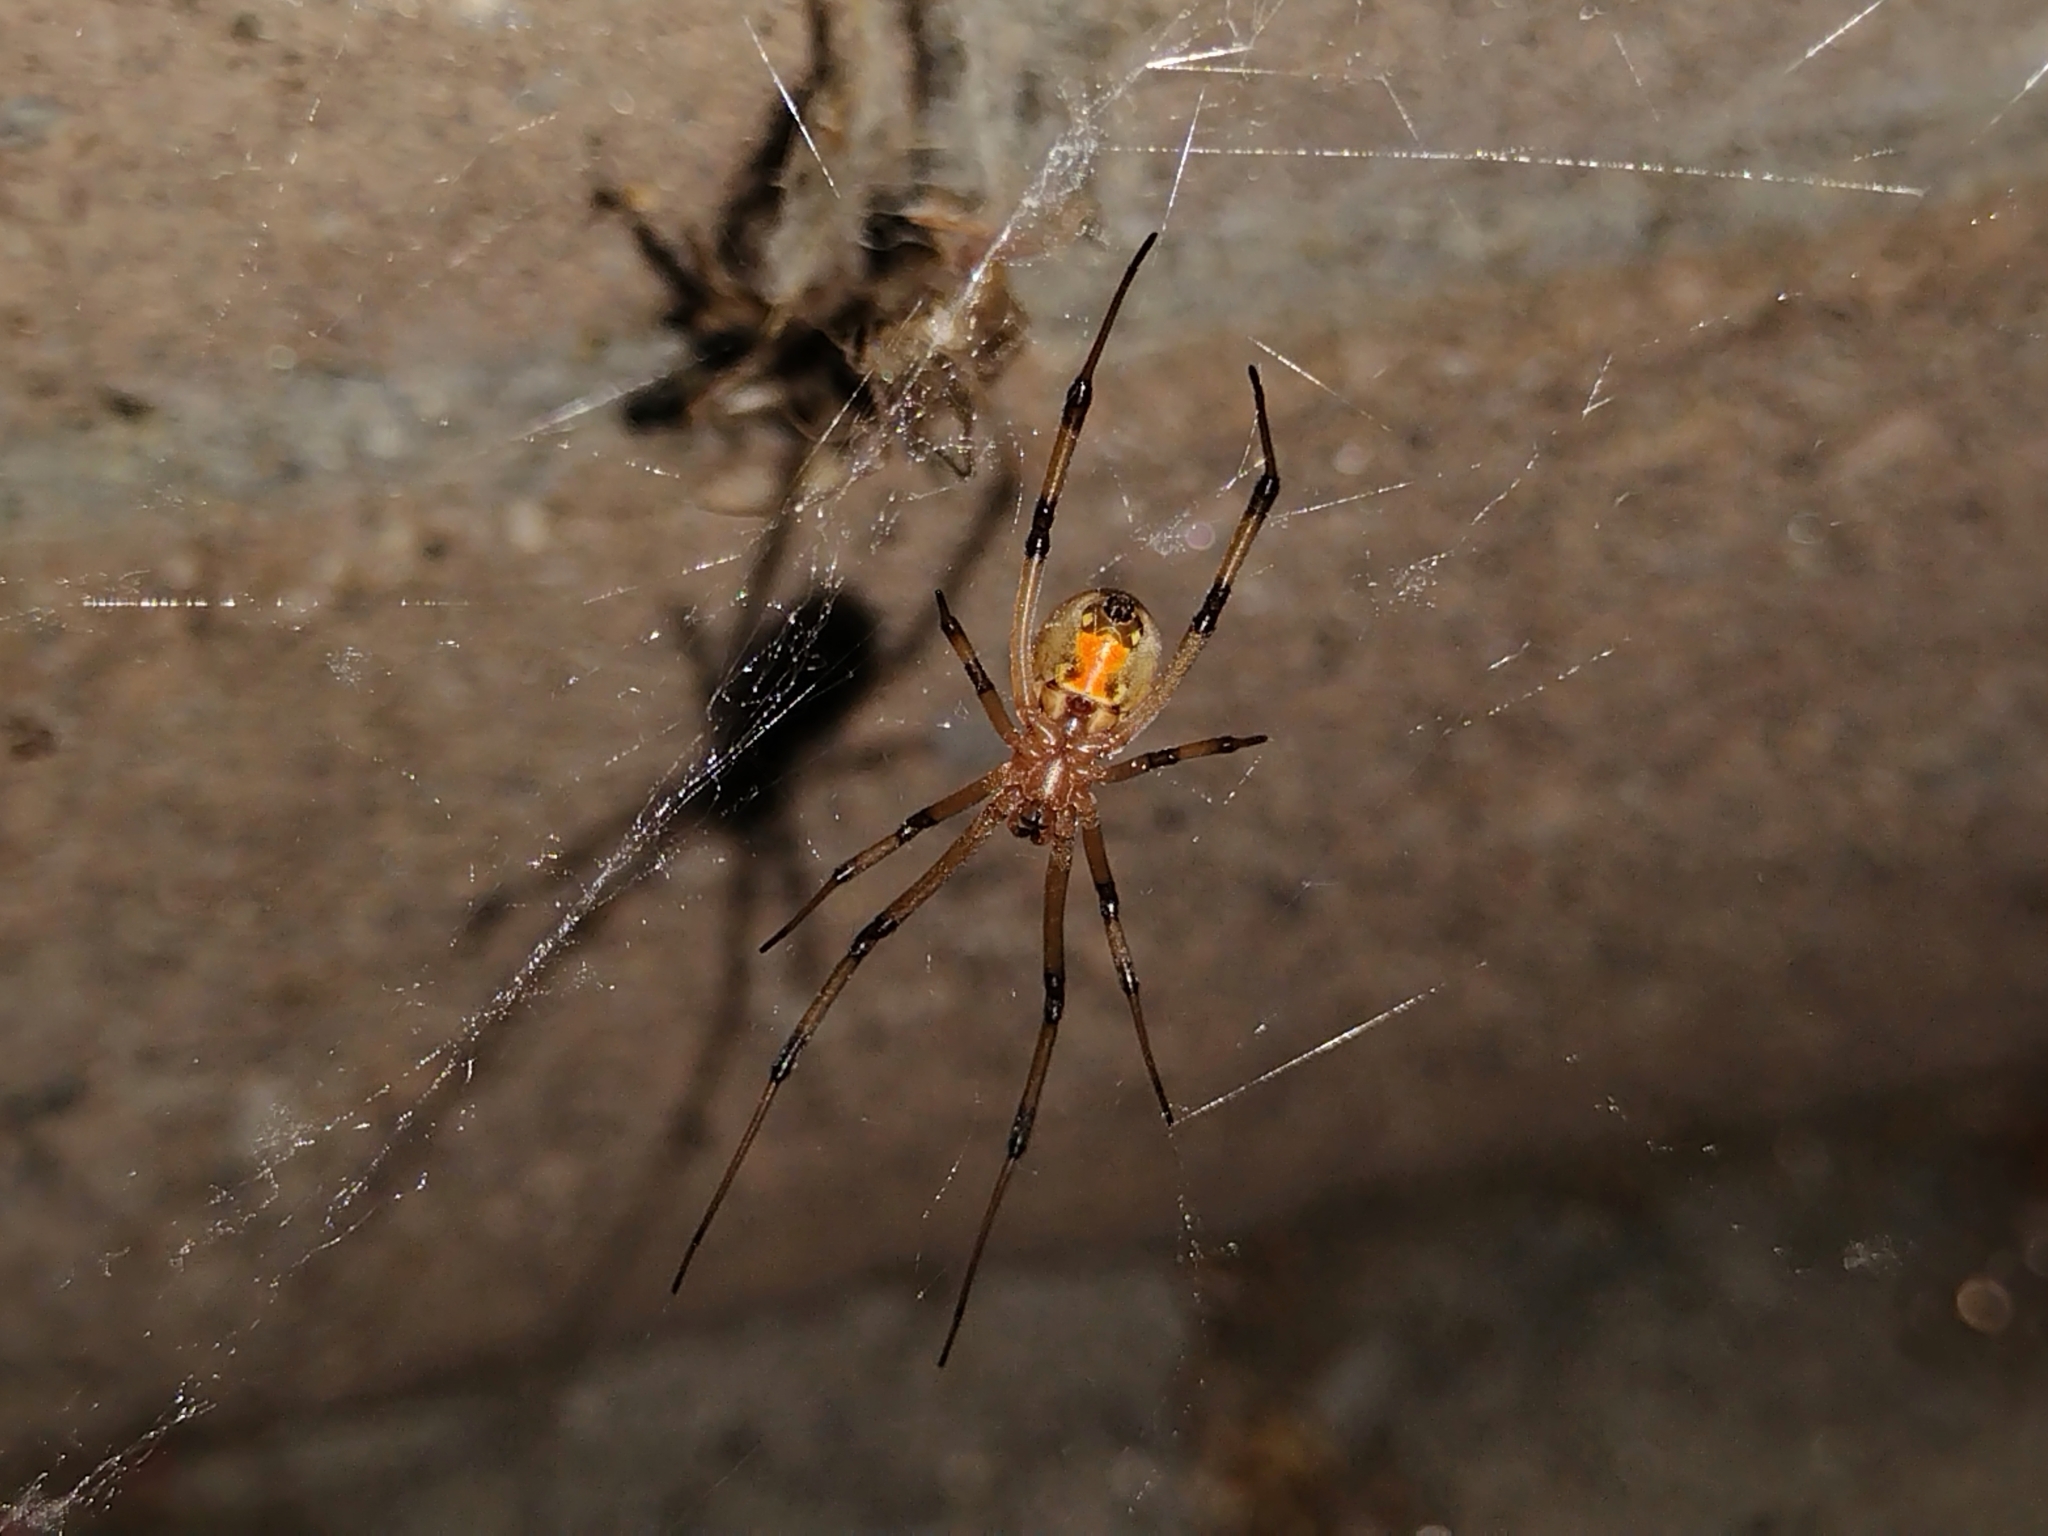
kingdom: Animalia
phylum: Arthropoda
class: Arachnida
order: Araneae
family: Theridiidae
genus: Latrodectus
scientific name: Latrodectus geometricus
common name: Brown widow spider
